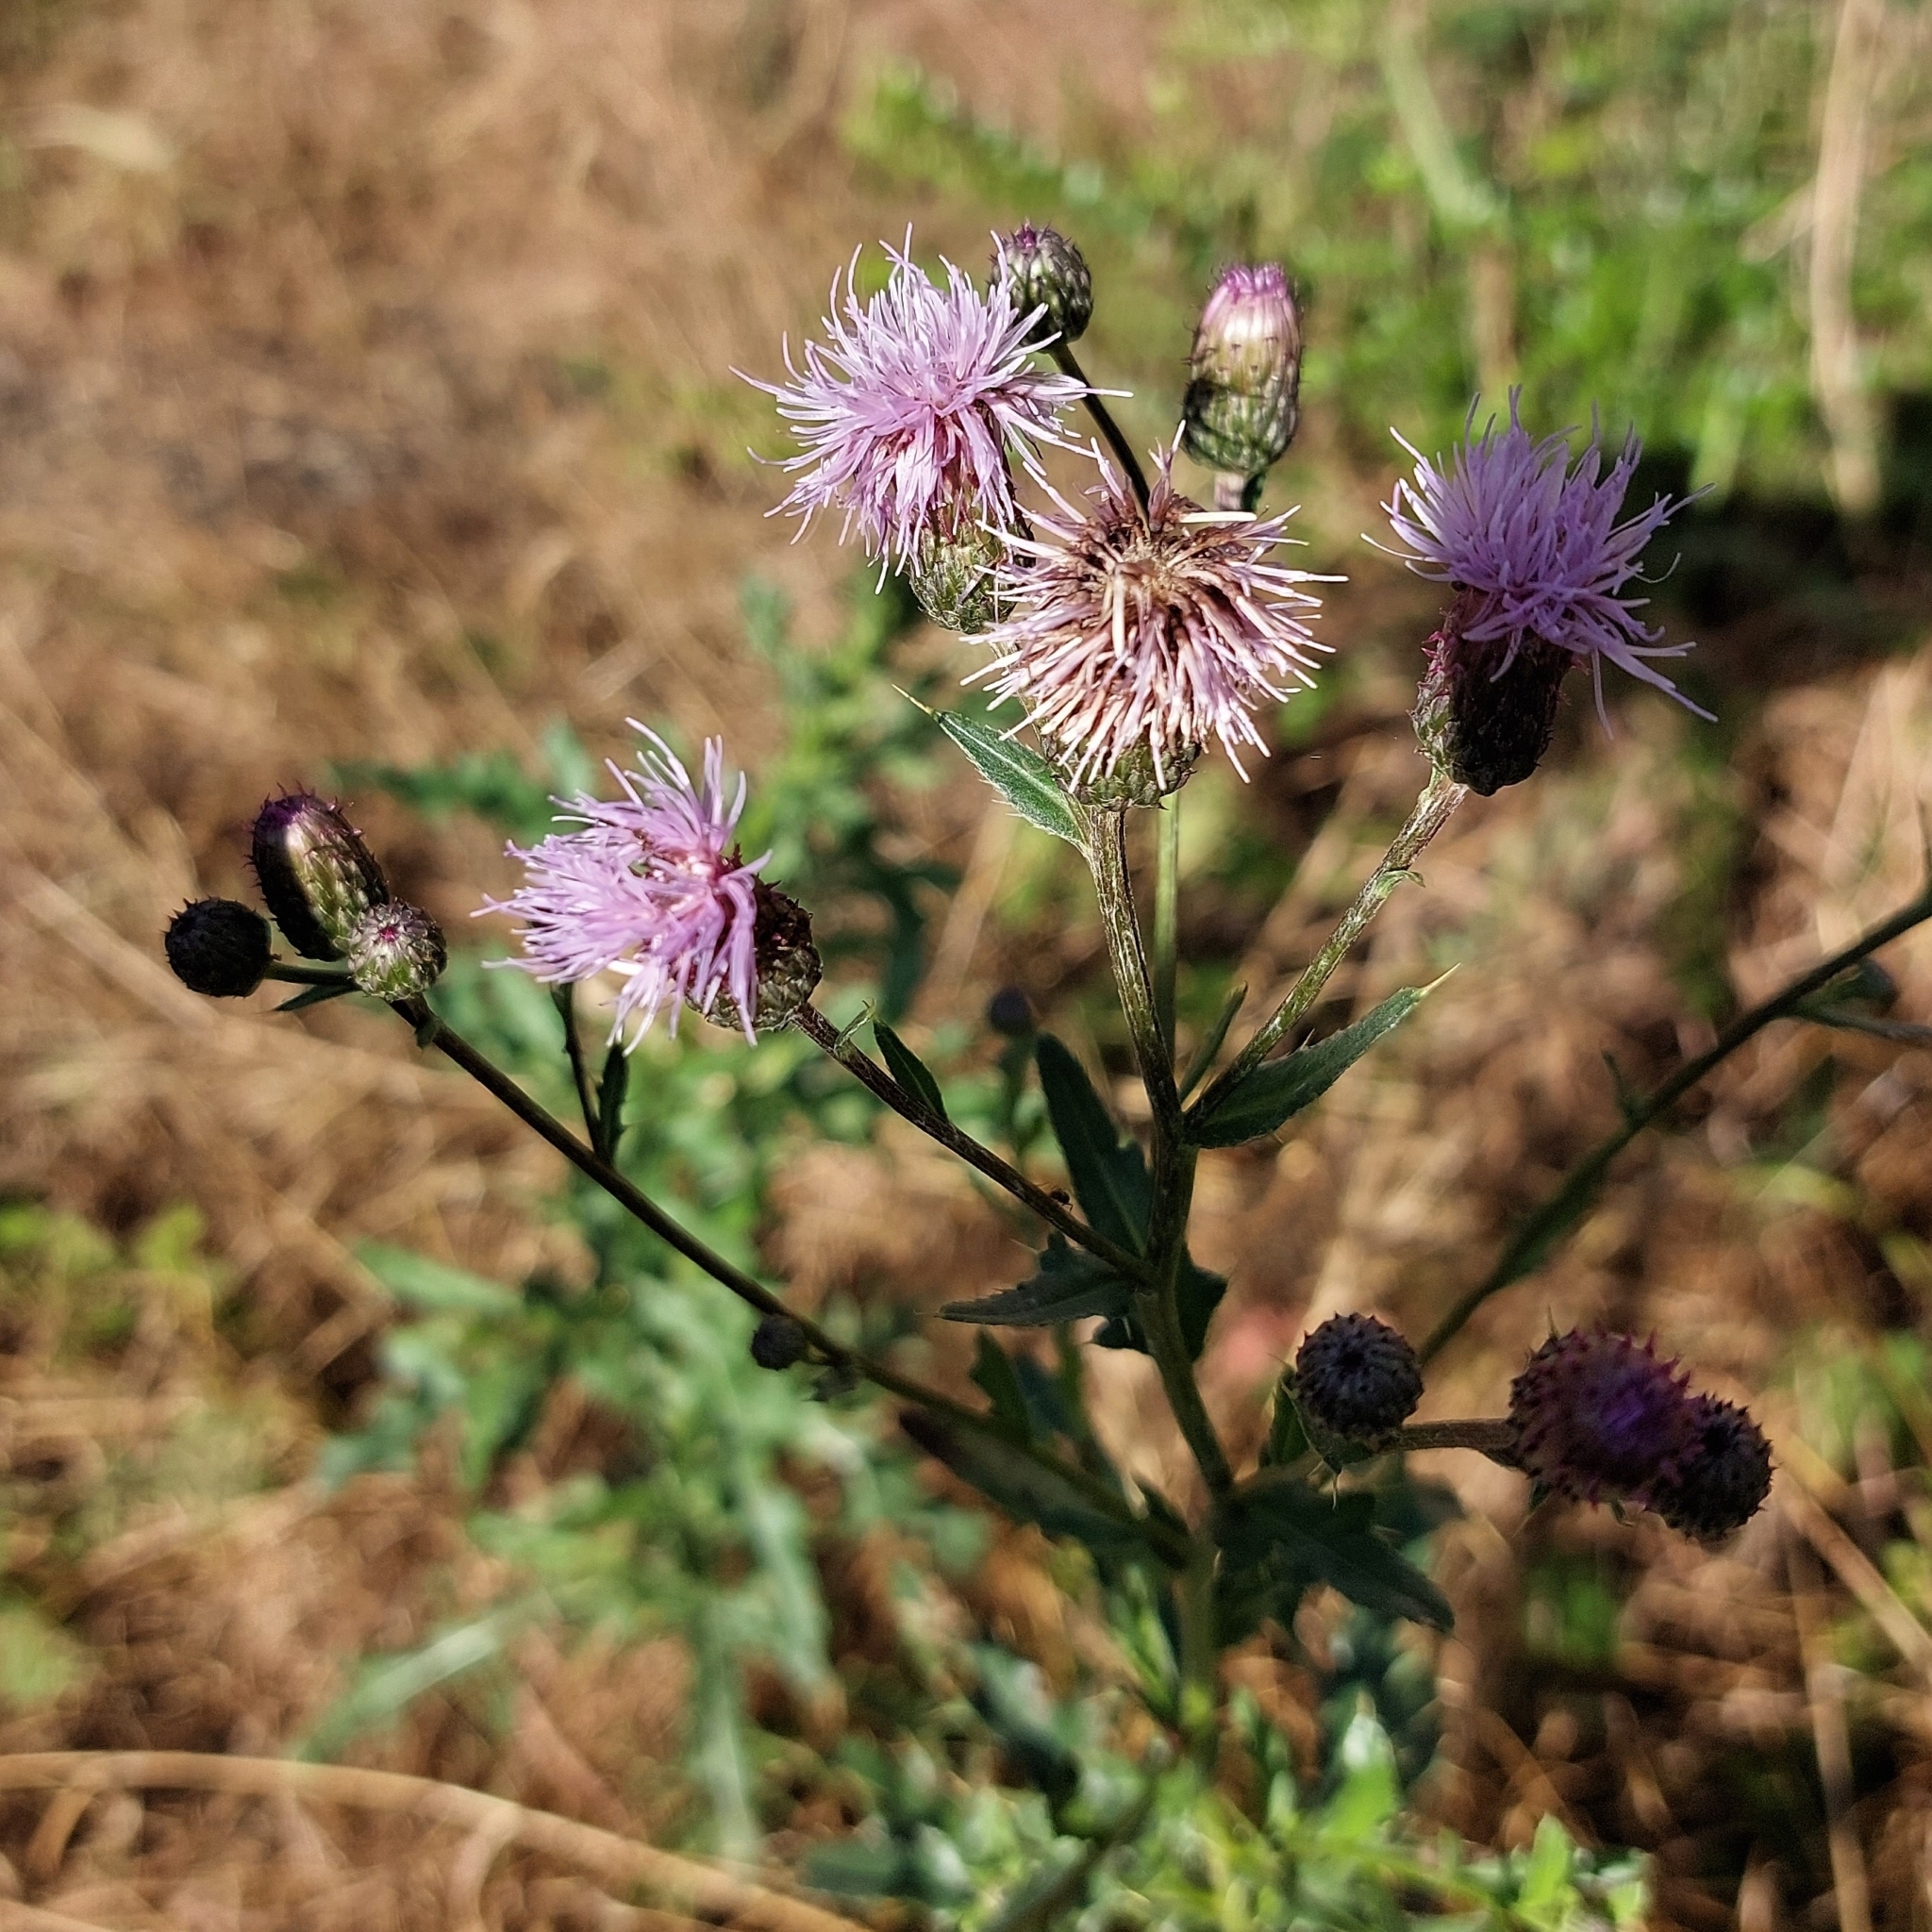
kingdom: Plantae
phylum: Tracheophyta
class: Magnoliopsida
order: Asterales
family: Asteraceae
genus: Cirsium
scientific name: Cirsium arvense
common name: Creeping thistle
